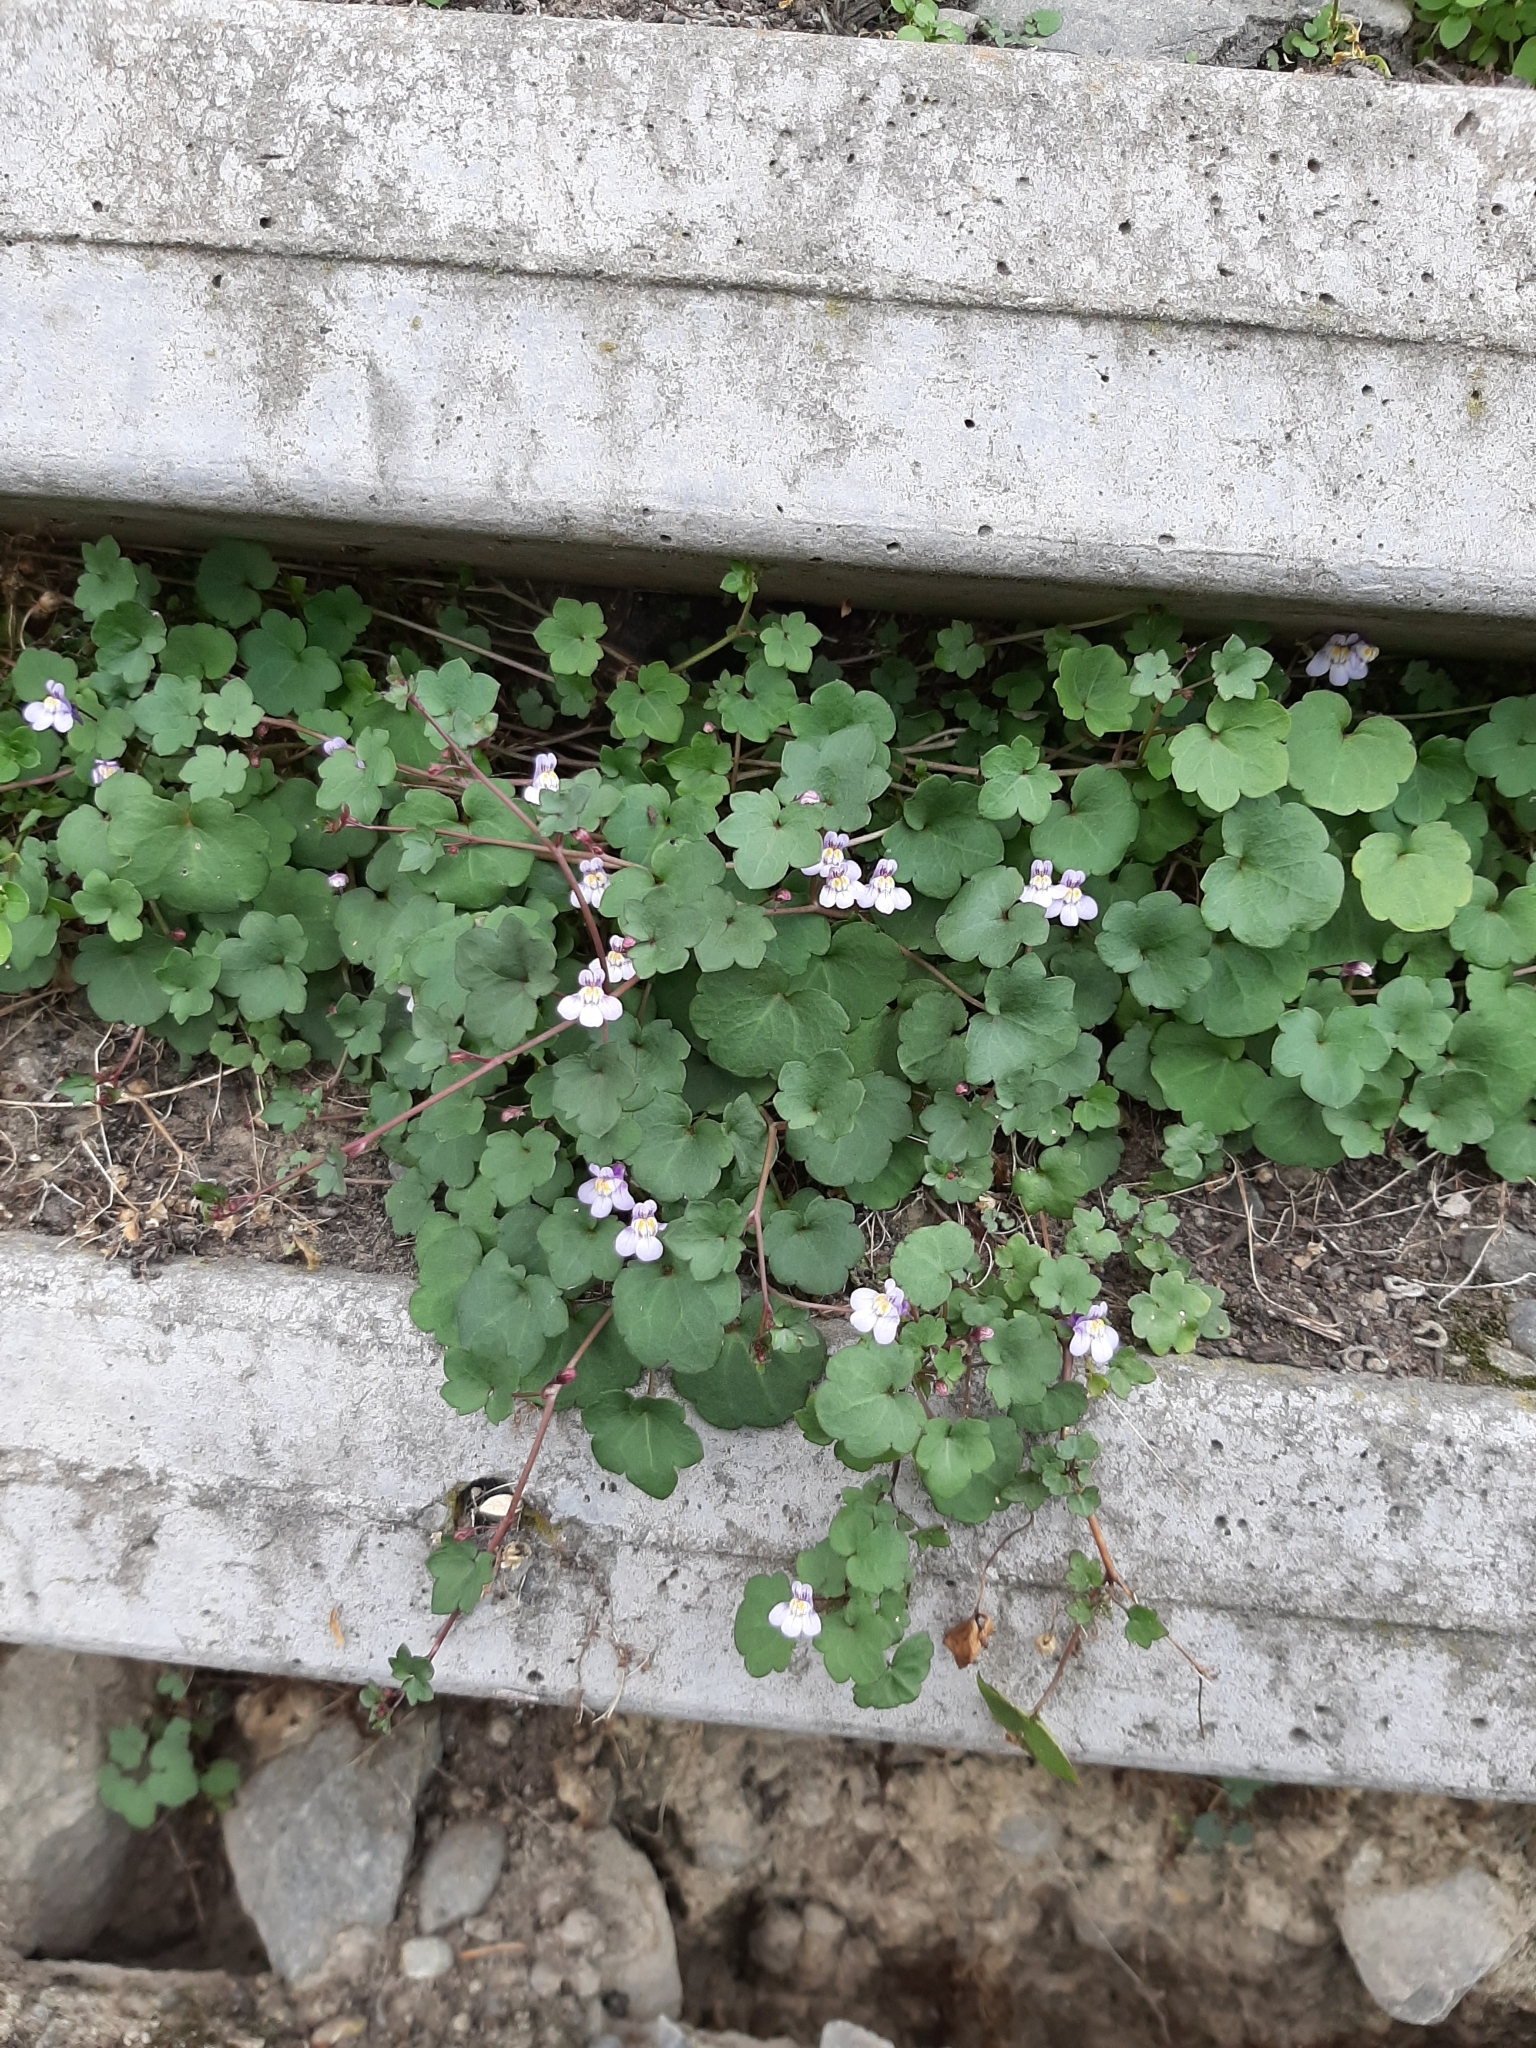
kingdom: Plantae
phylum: Tracheophyta
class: Magnoliopsida
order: Lamiales
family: Plantaginaceae
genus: Cymbalaria
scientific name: Cymbalaria muralis
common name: Ivy-leaved toadflax
